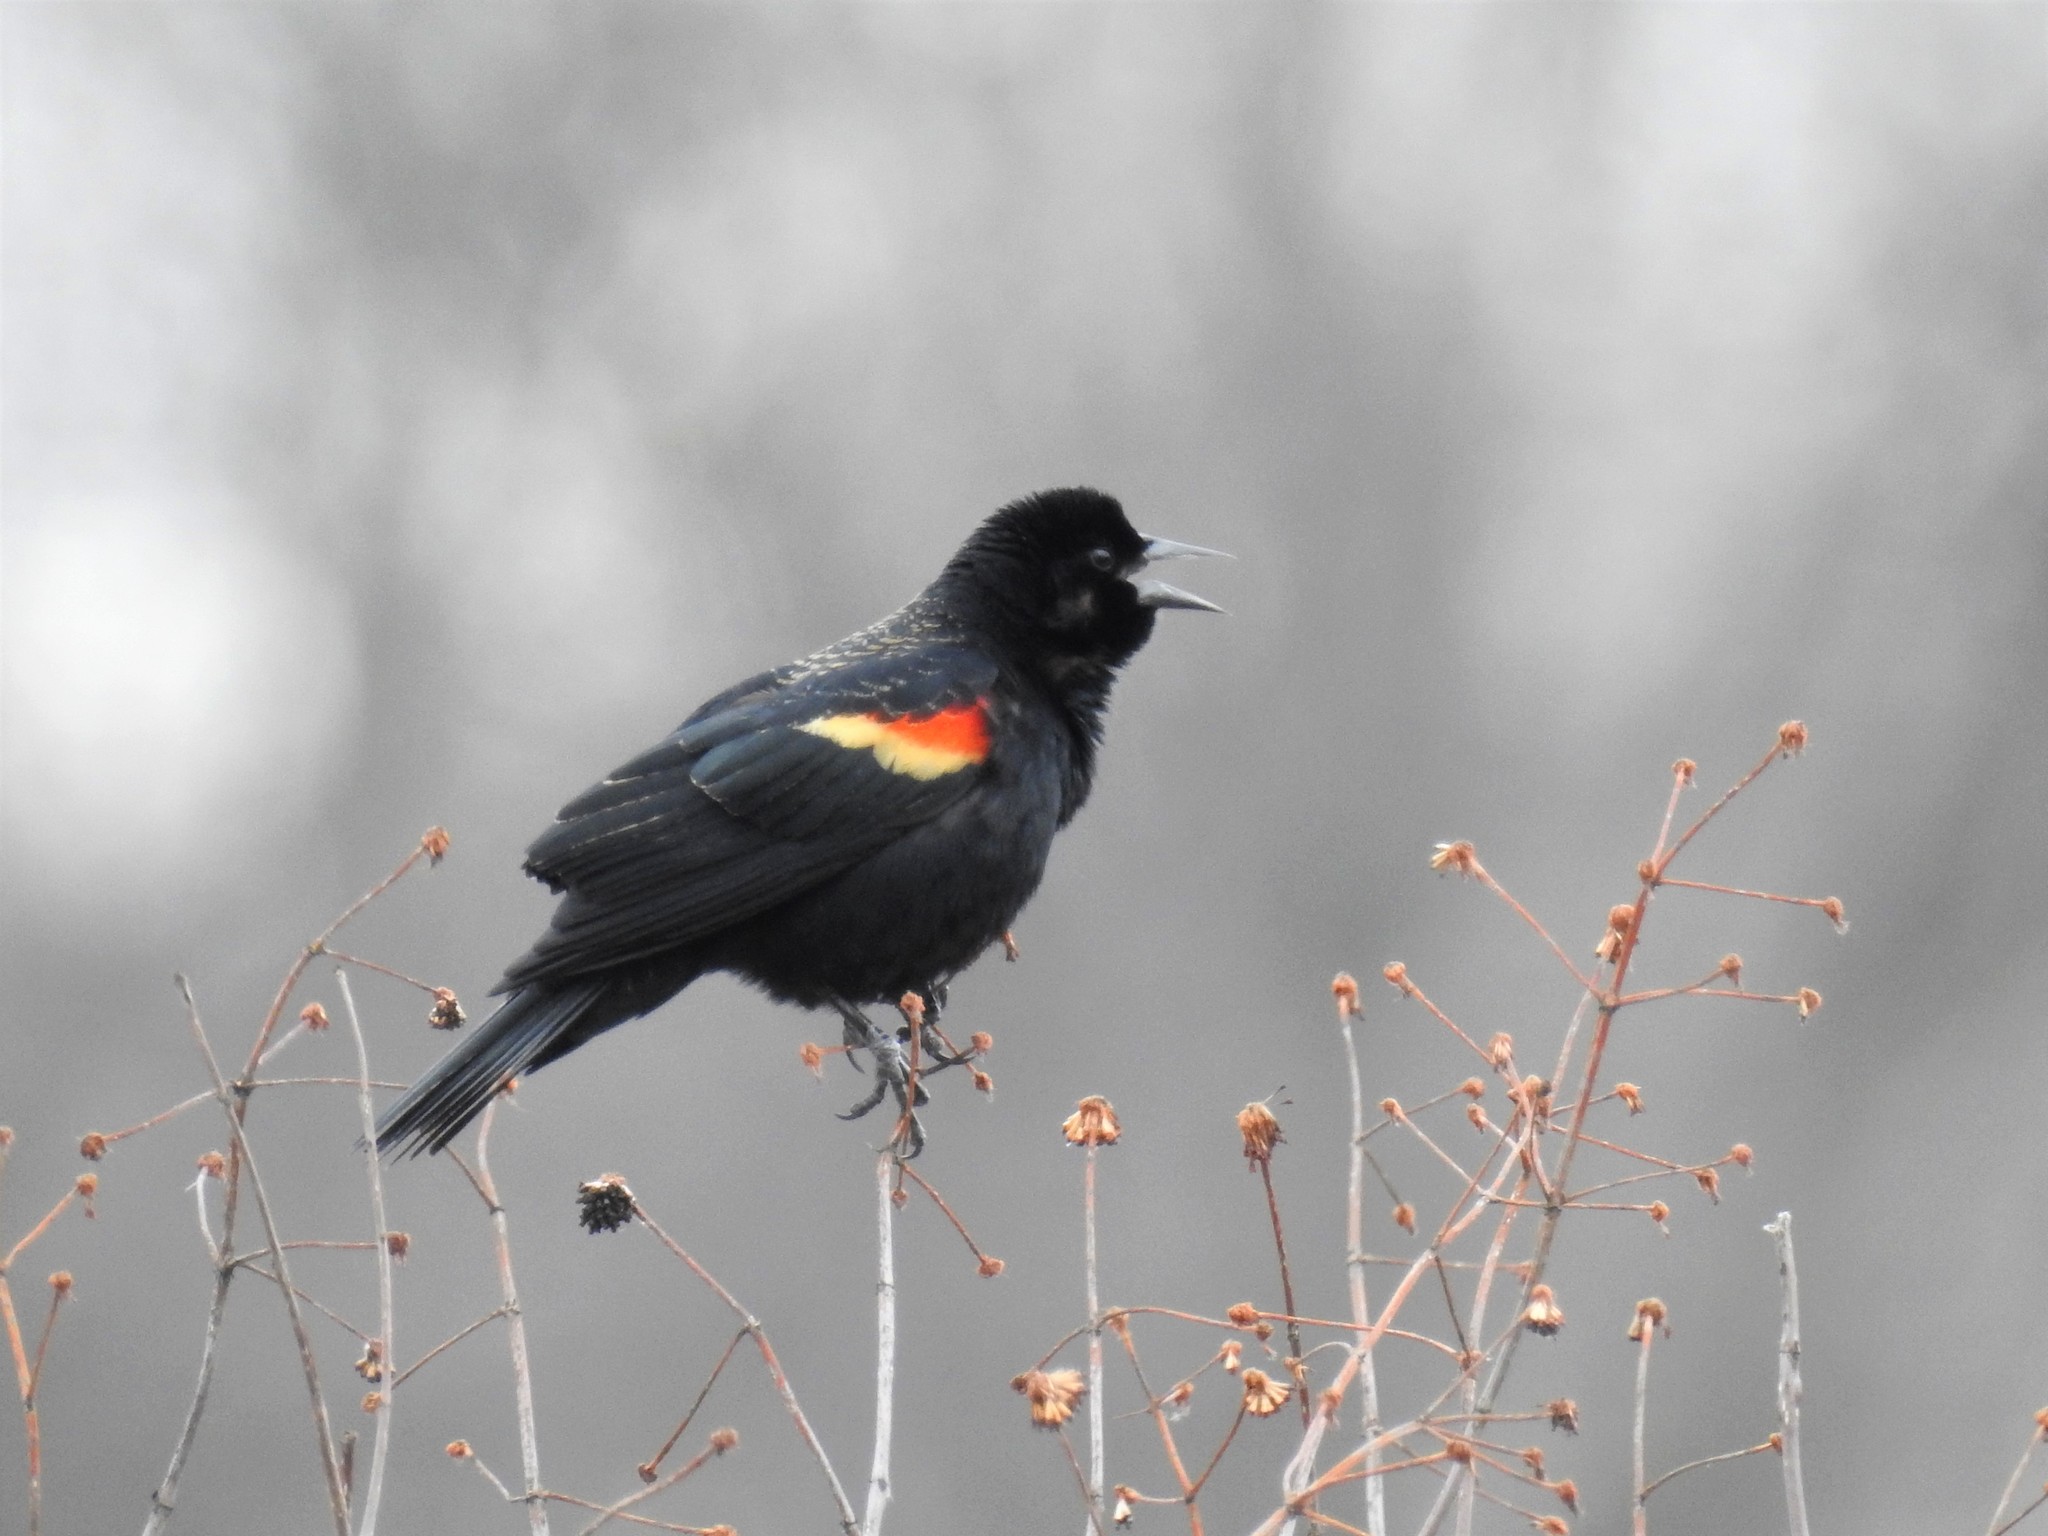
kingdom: Animalia
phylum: Chordata
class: Aves
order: Passeriformes
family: Icteridae
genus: Agelaius
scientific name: Agelaius phoeniceus
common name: Red-winged blackbird
